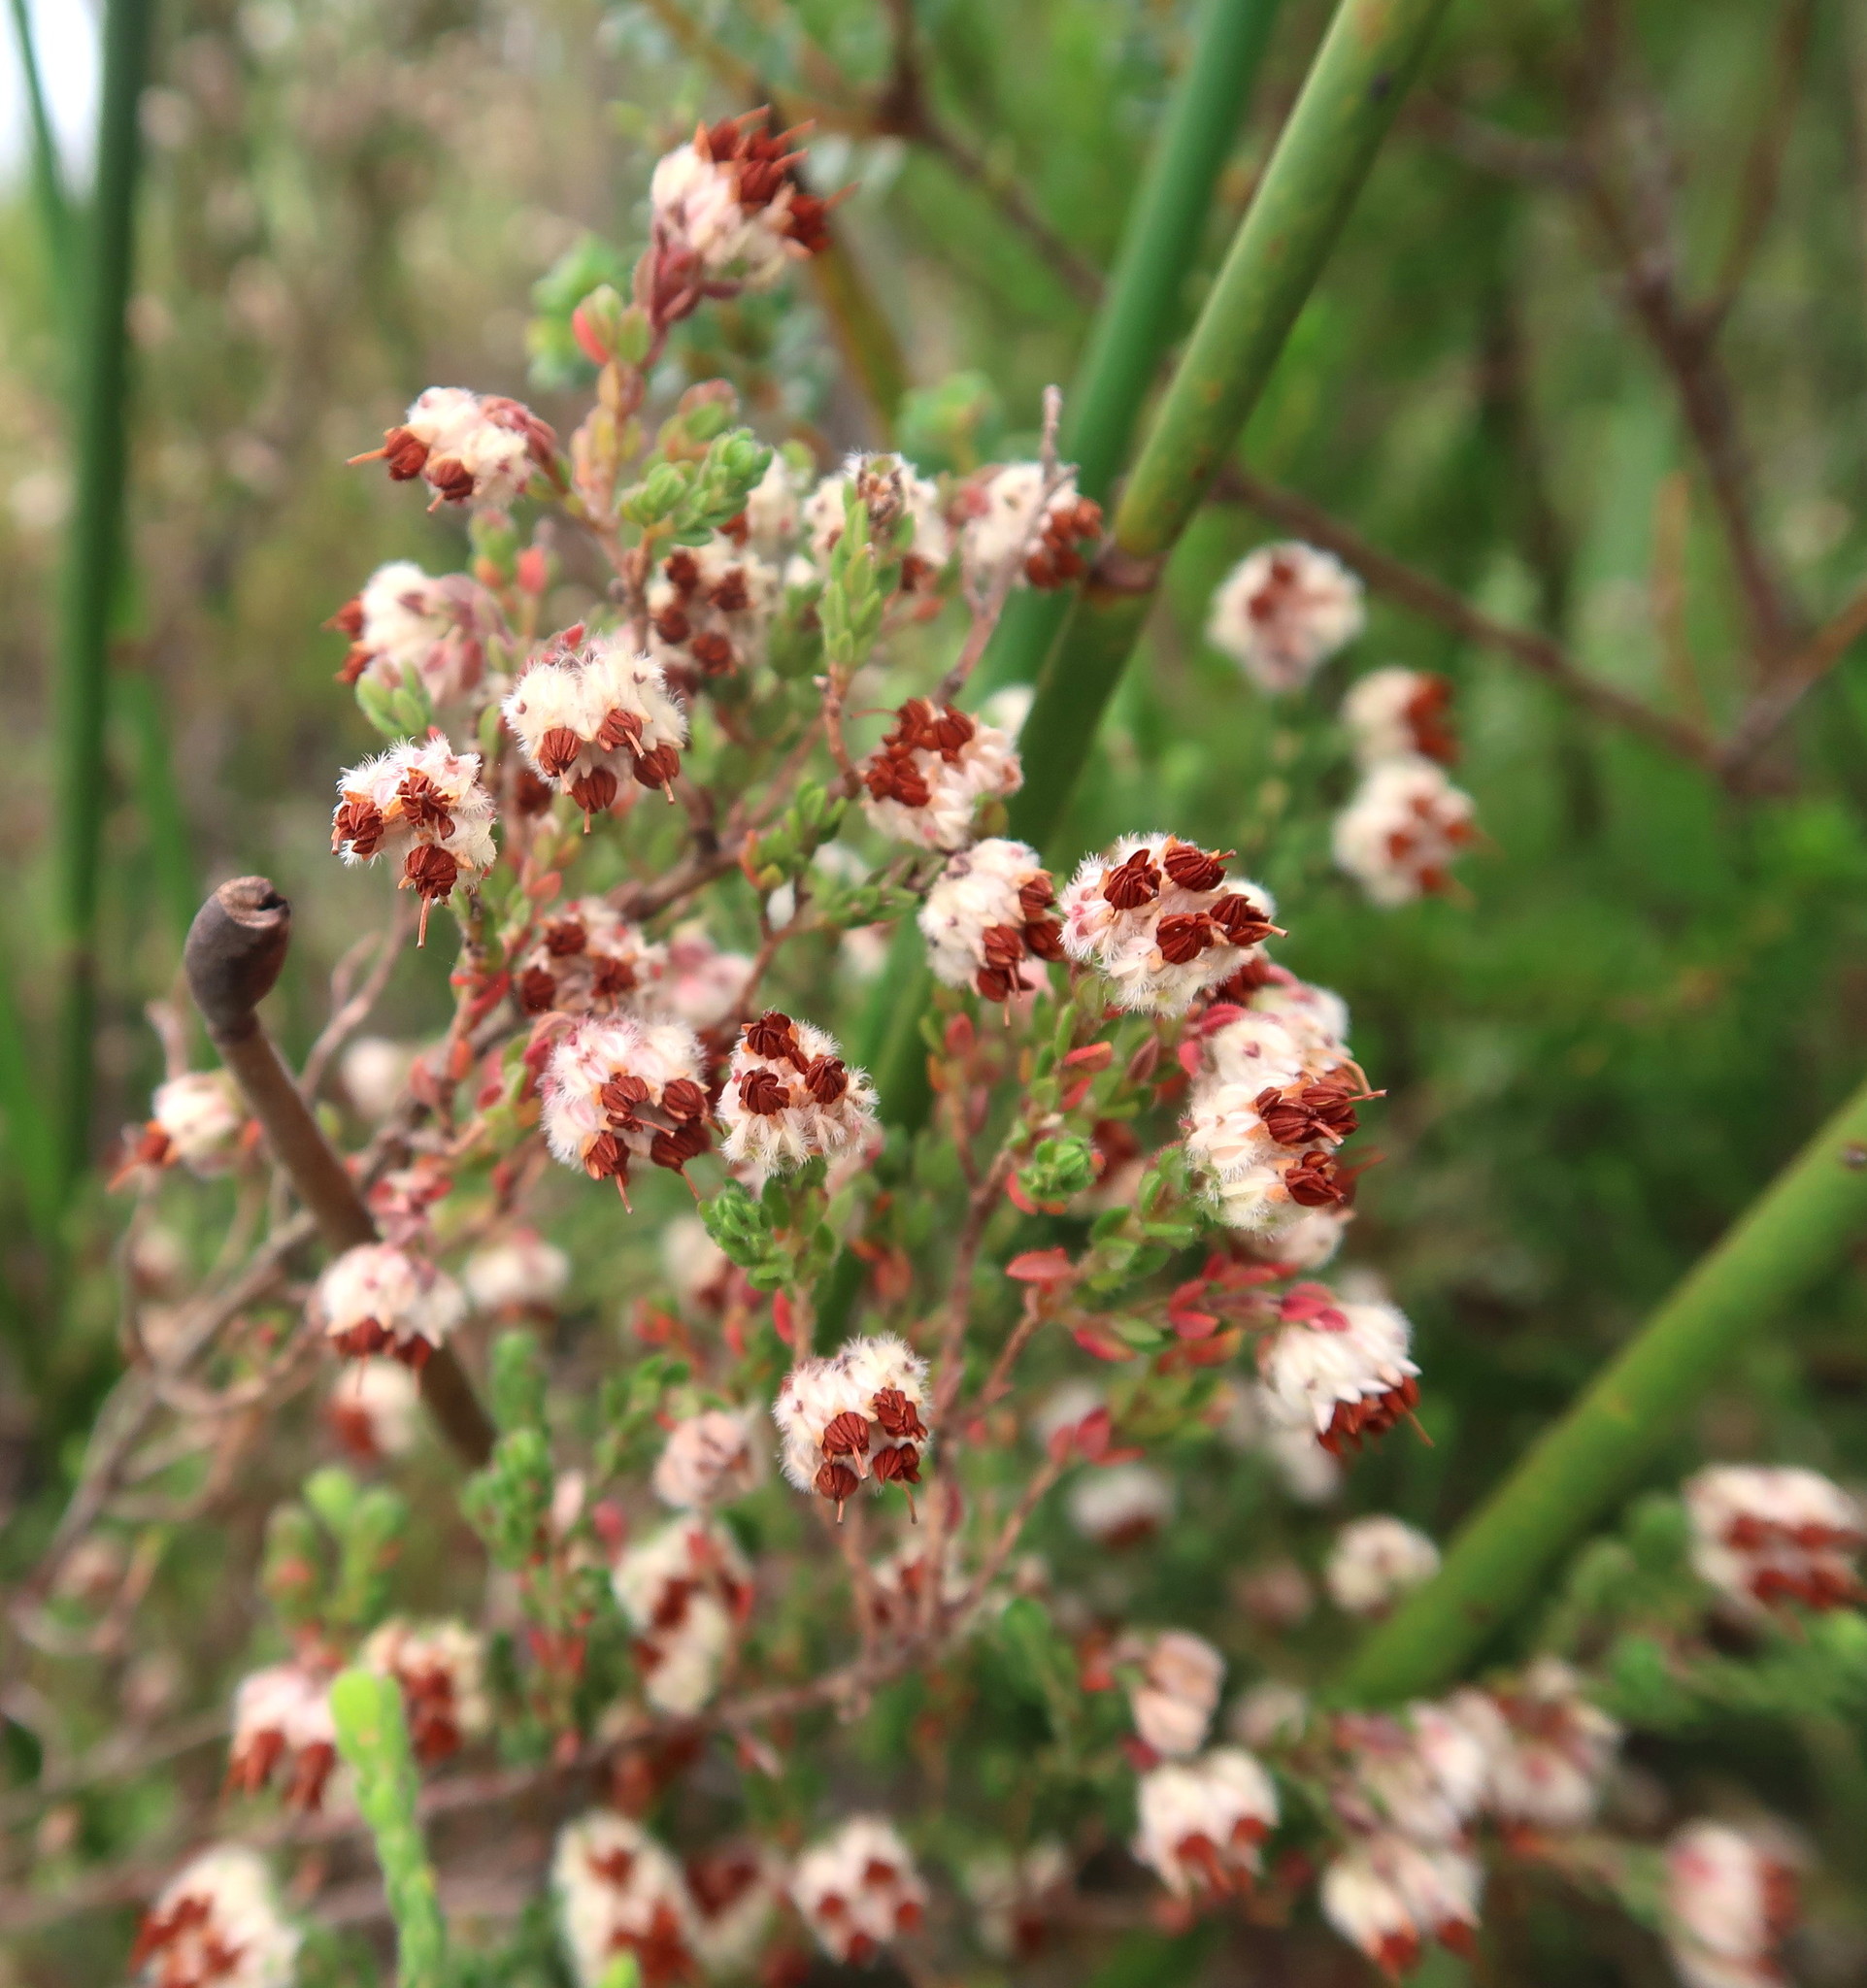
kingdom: Plantae
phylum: Tracheophyta
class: Magnoliopsida
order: Ericales
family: Ericaceae
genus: Erica
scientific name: Erica flaccida
